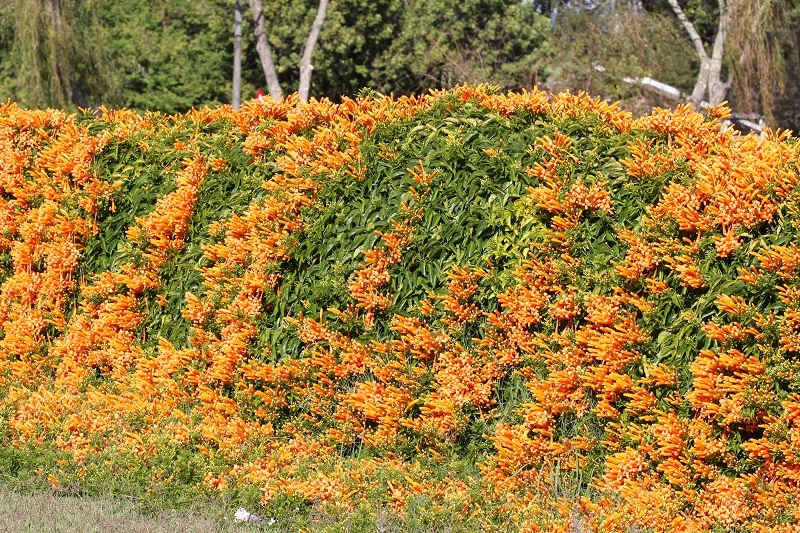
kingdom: Plantae
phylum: Tracheophyta
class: Magnoliopsida
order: Lamiales
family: Bignoniaceae
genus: Pyrostegia
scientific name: Pyrostegia venusta
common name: Flamevine
